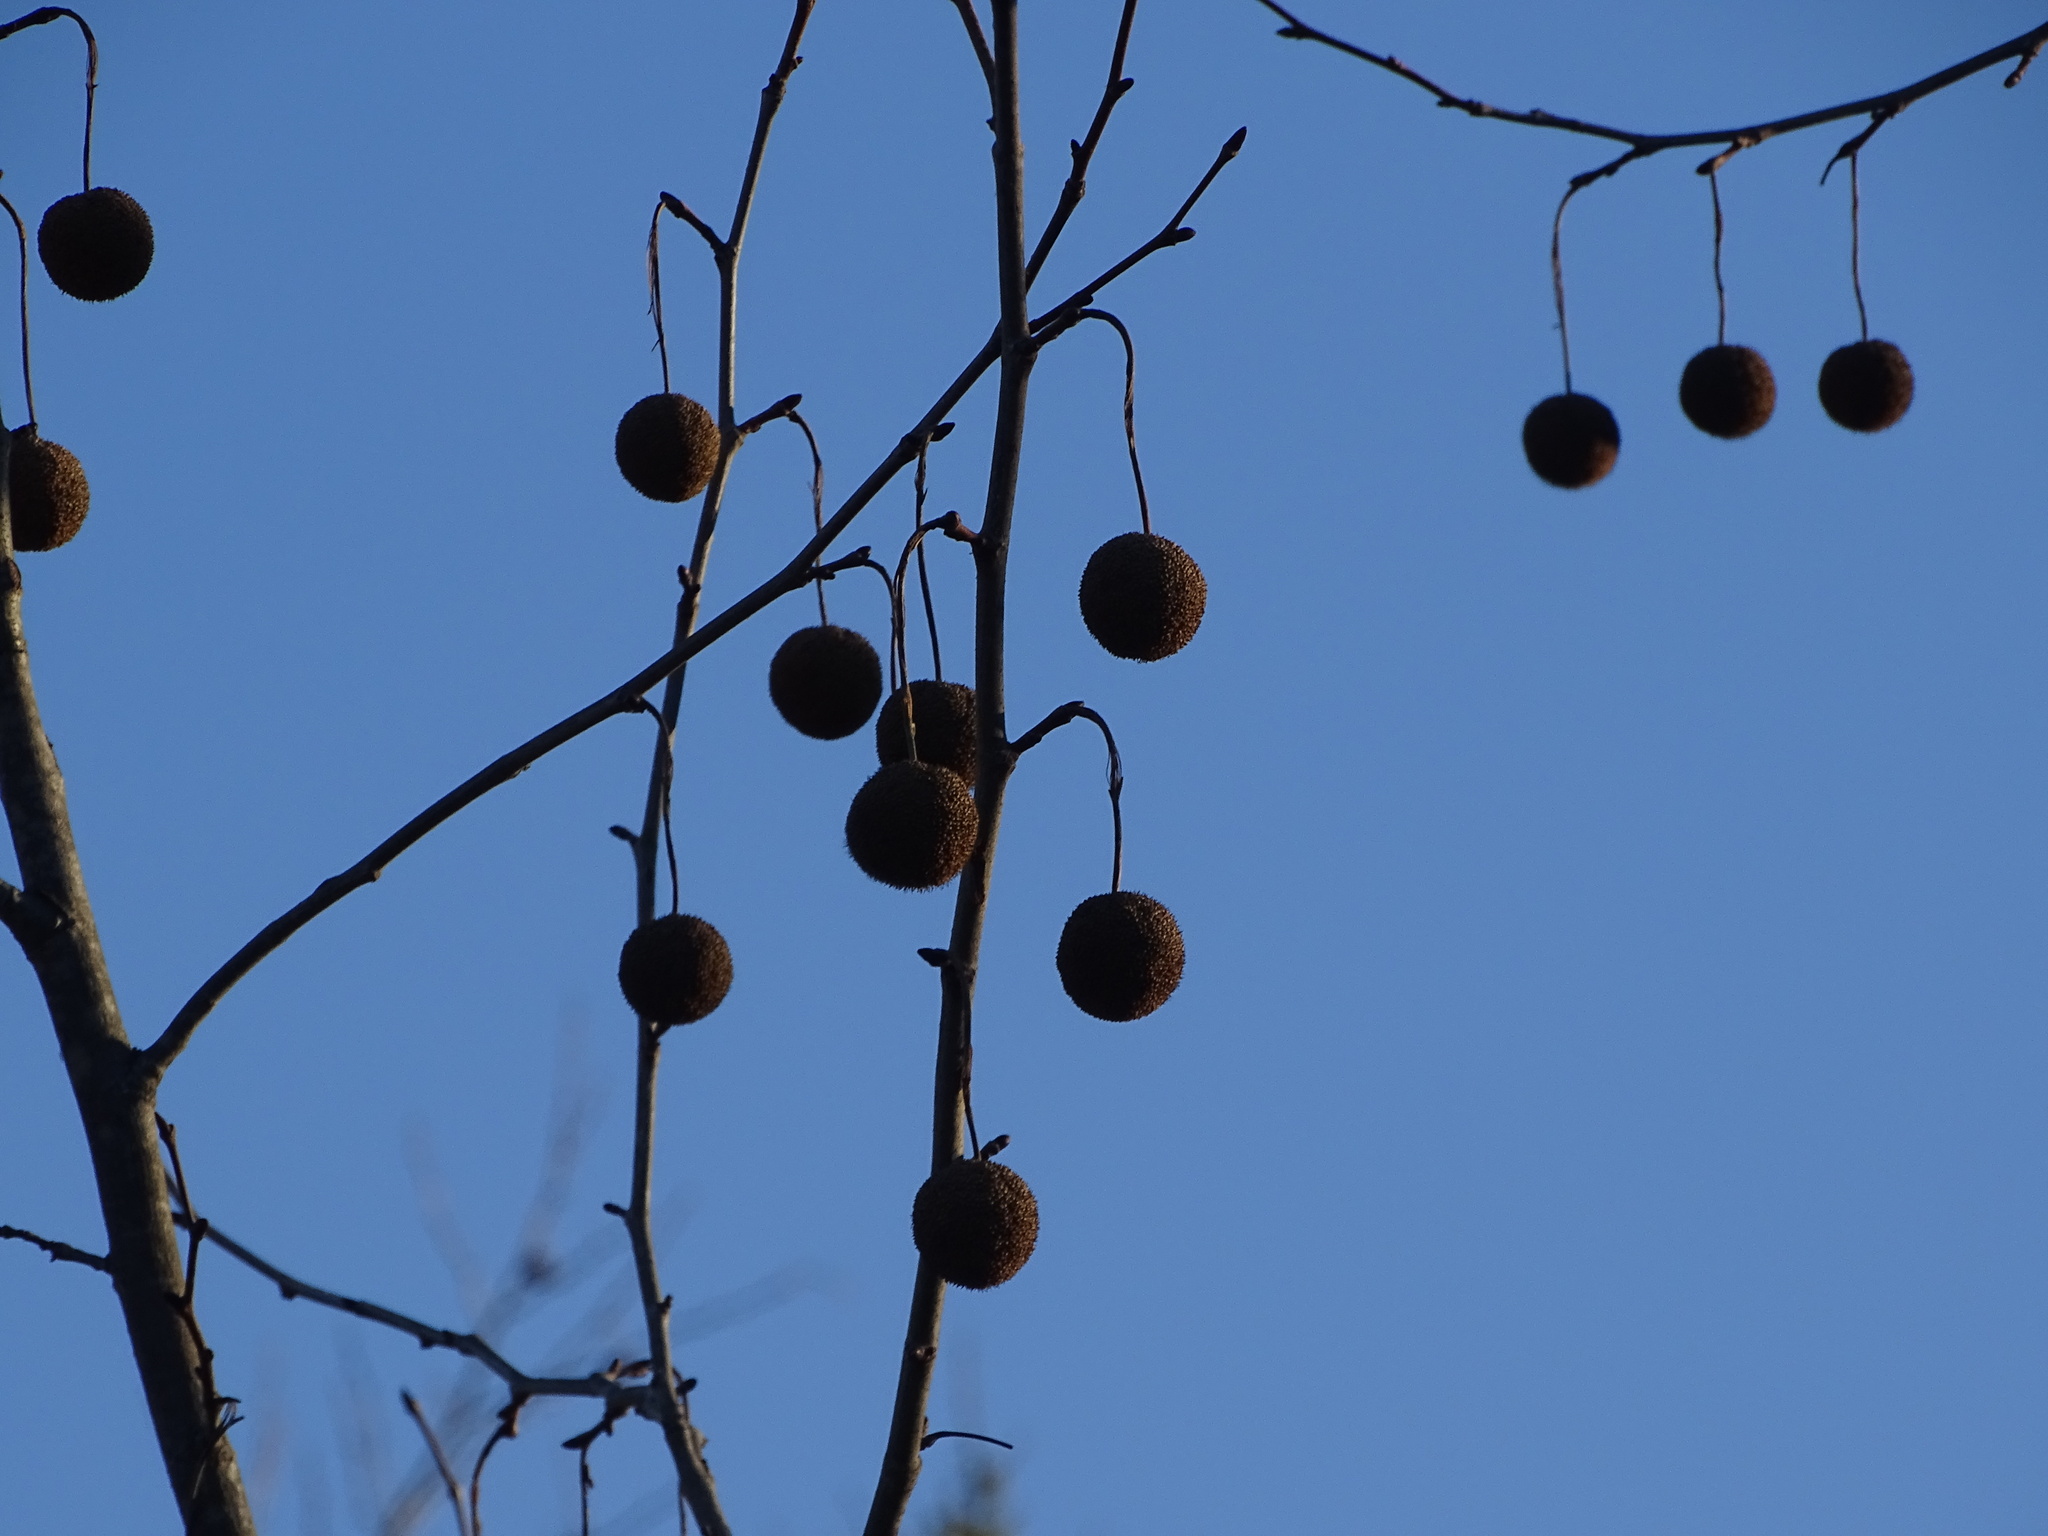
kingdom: Plantae
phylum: Tracheophyta
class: Magnoliopsida
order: Proteales
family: Platanaceae
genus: Platanus
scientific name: Platanus occidentalis
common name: American sycamore
